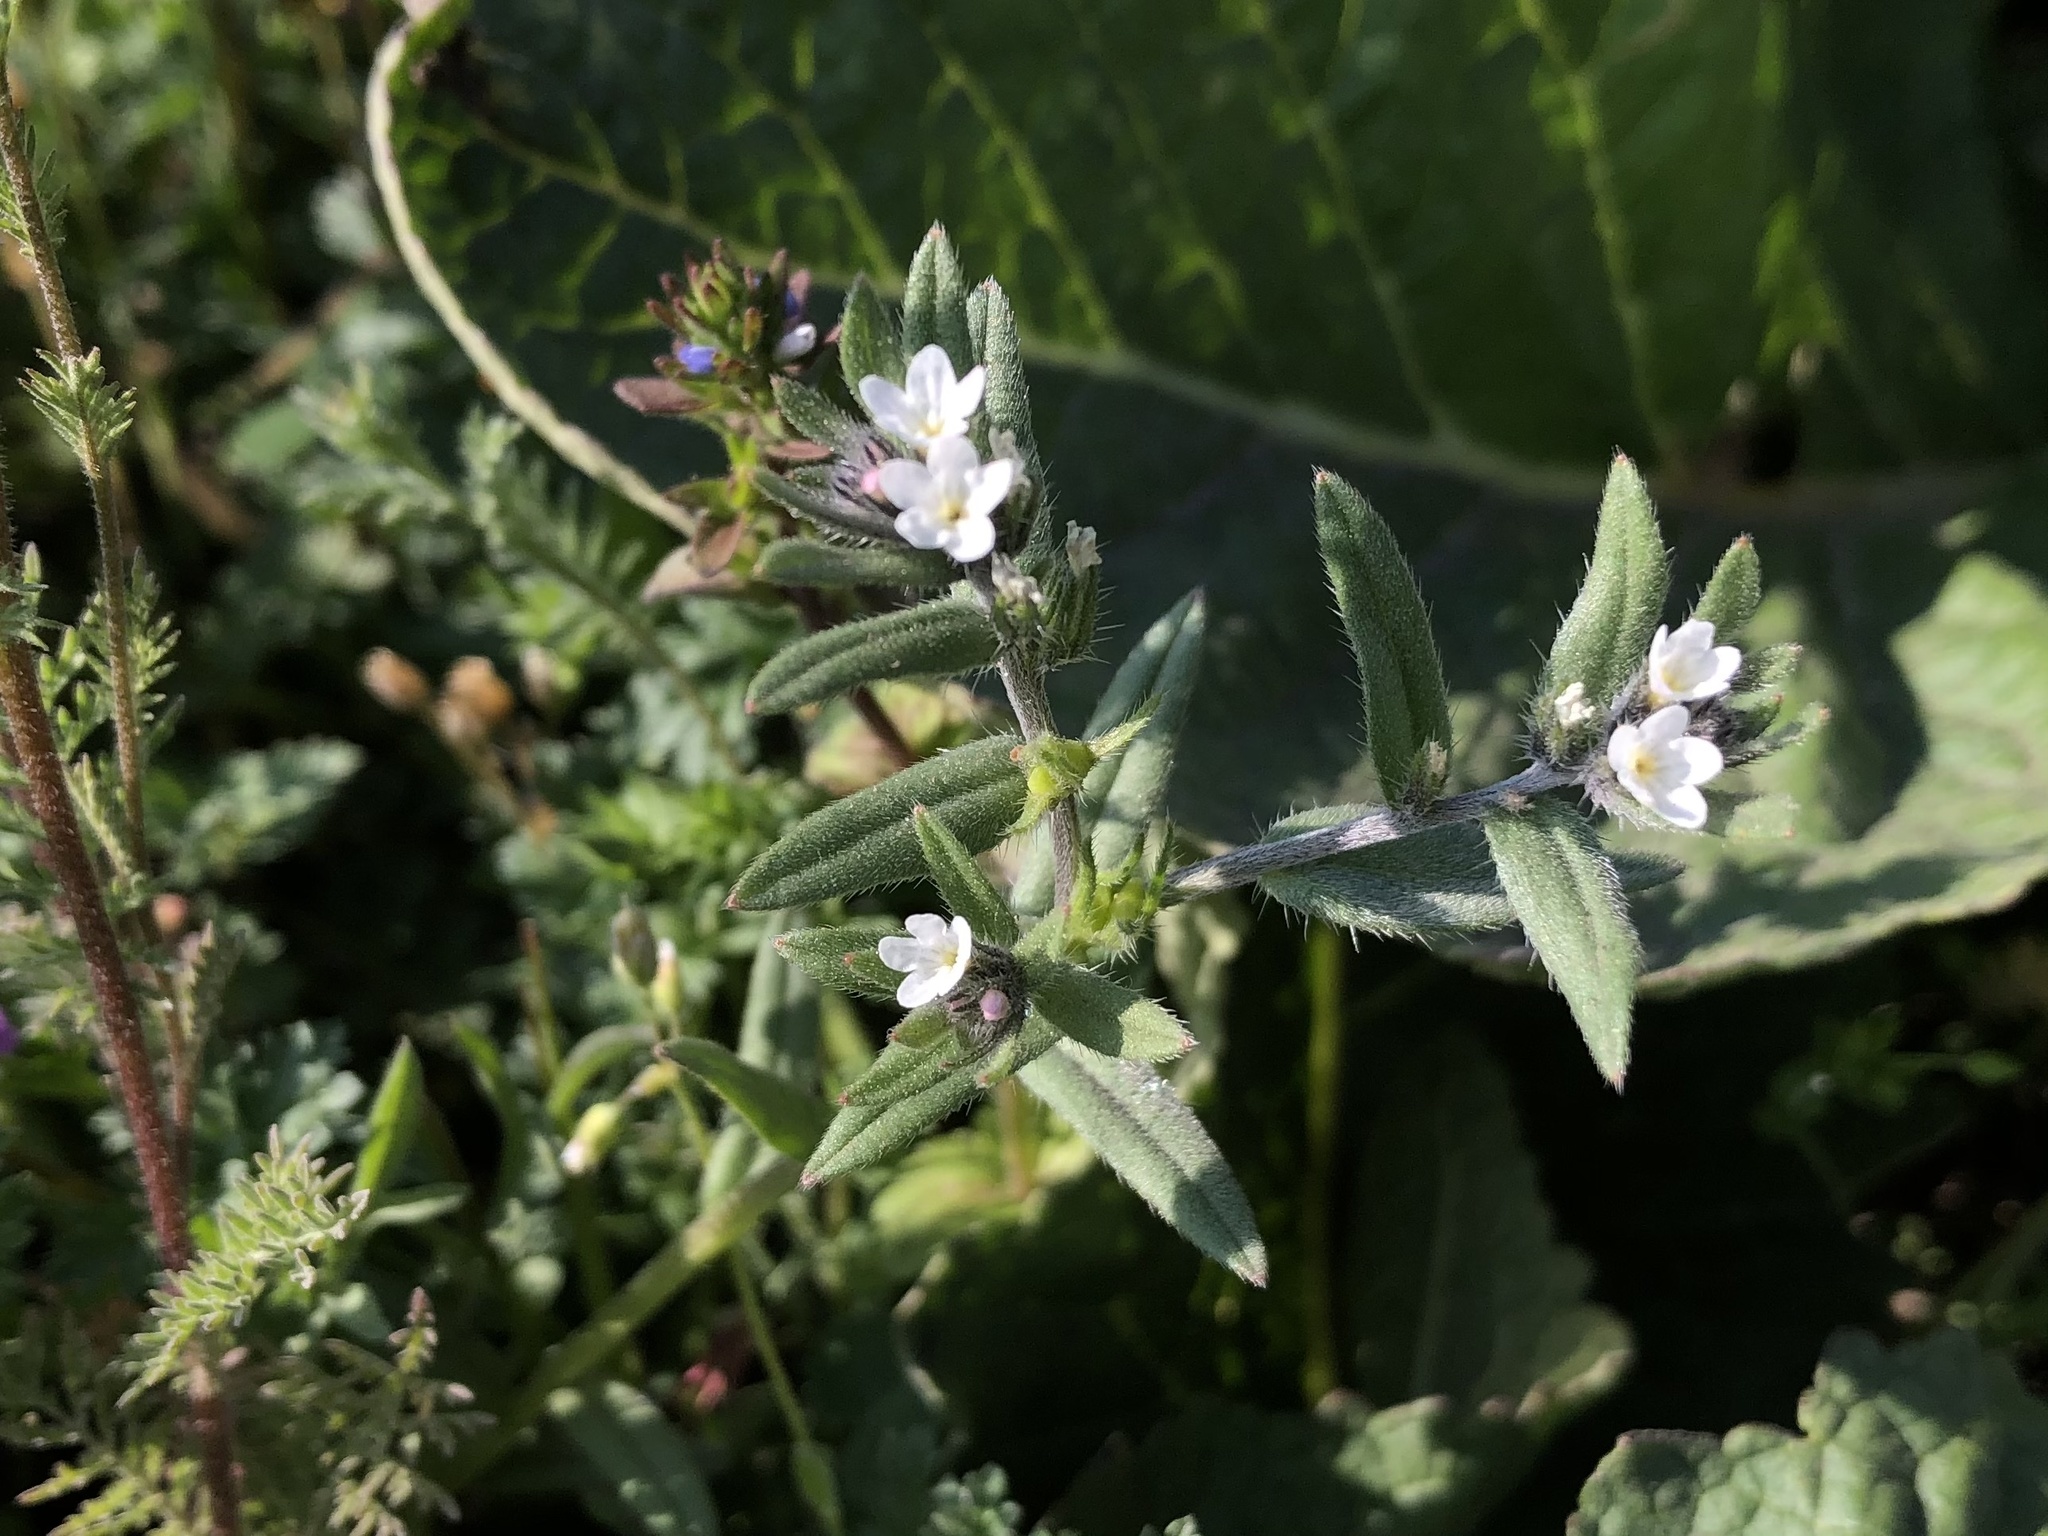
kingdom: Plantae
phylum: Tracheophyta
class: Magnoliopsida
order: Boraginales
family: Boraginaceae
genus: Buglossoides
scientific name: Buglossoides arvensis
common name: Corn gromwell
